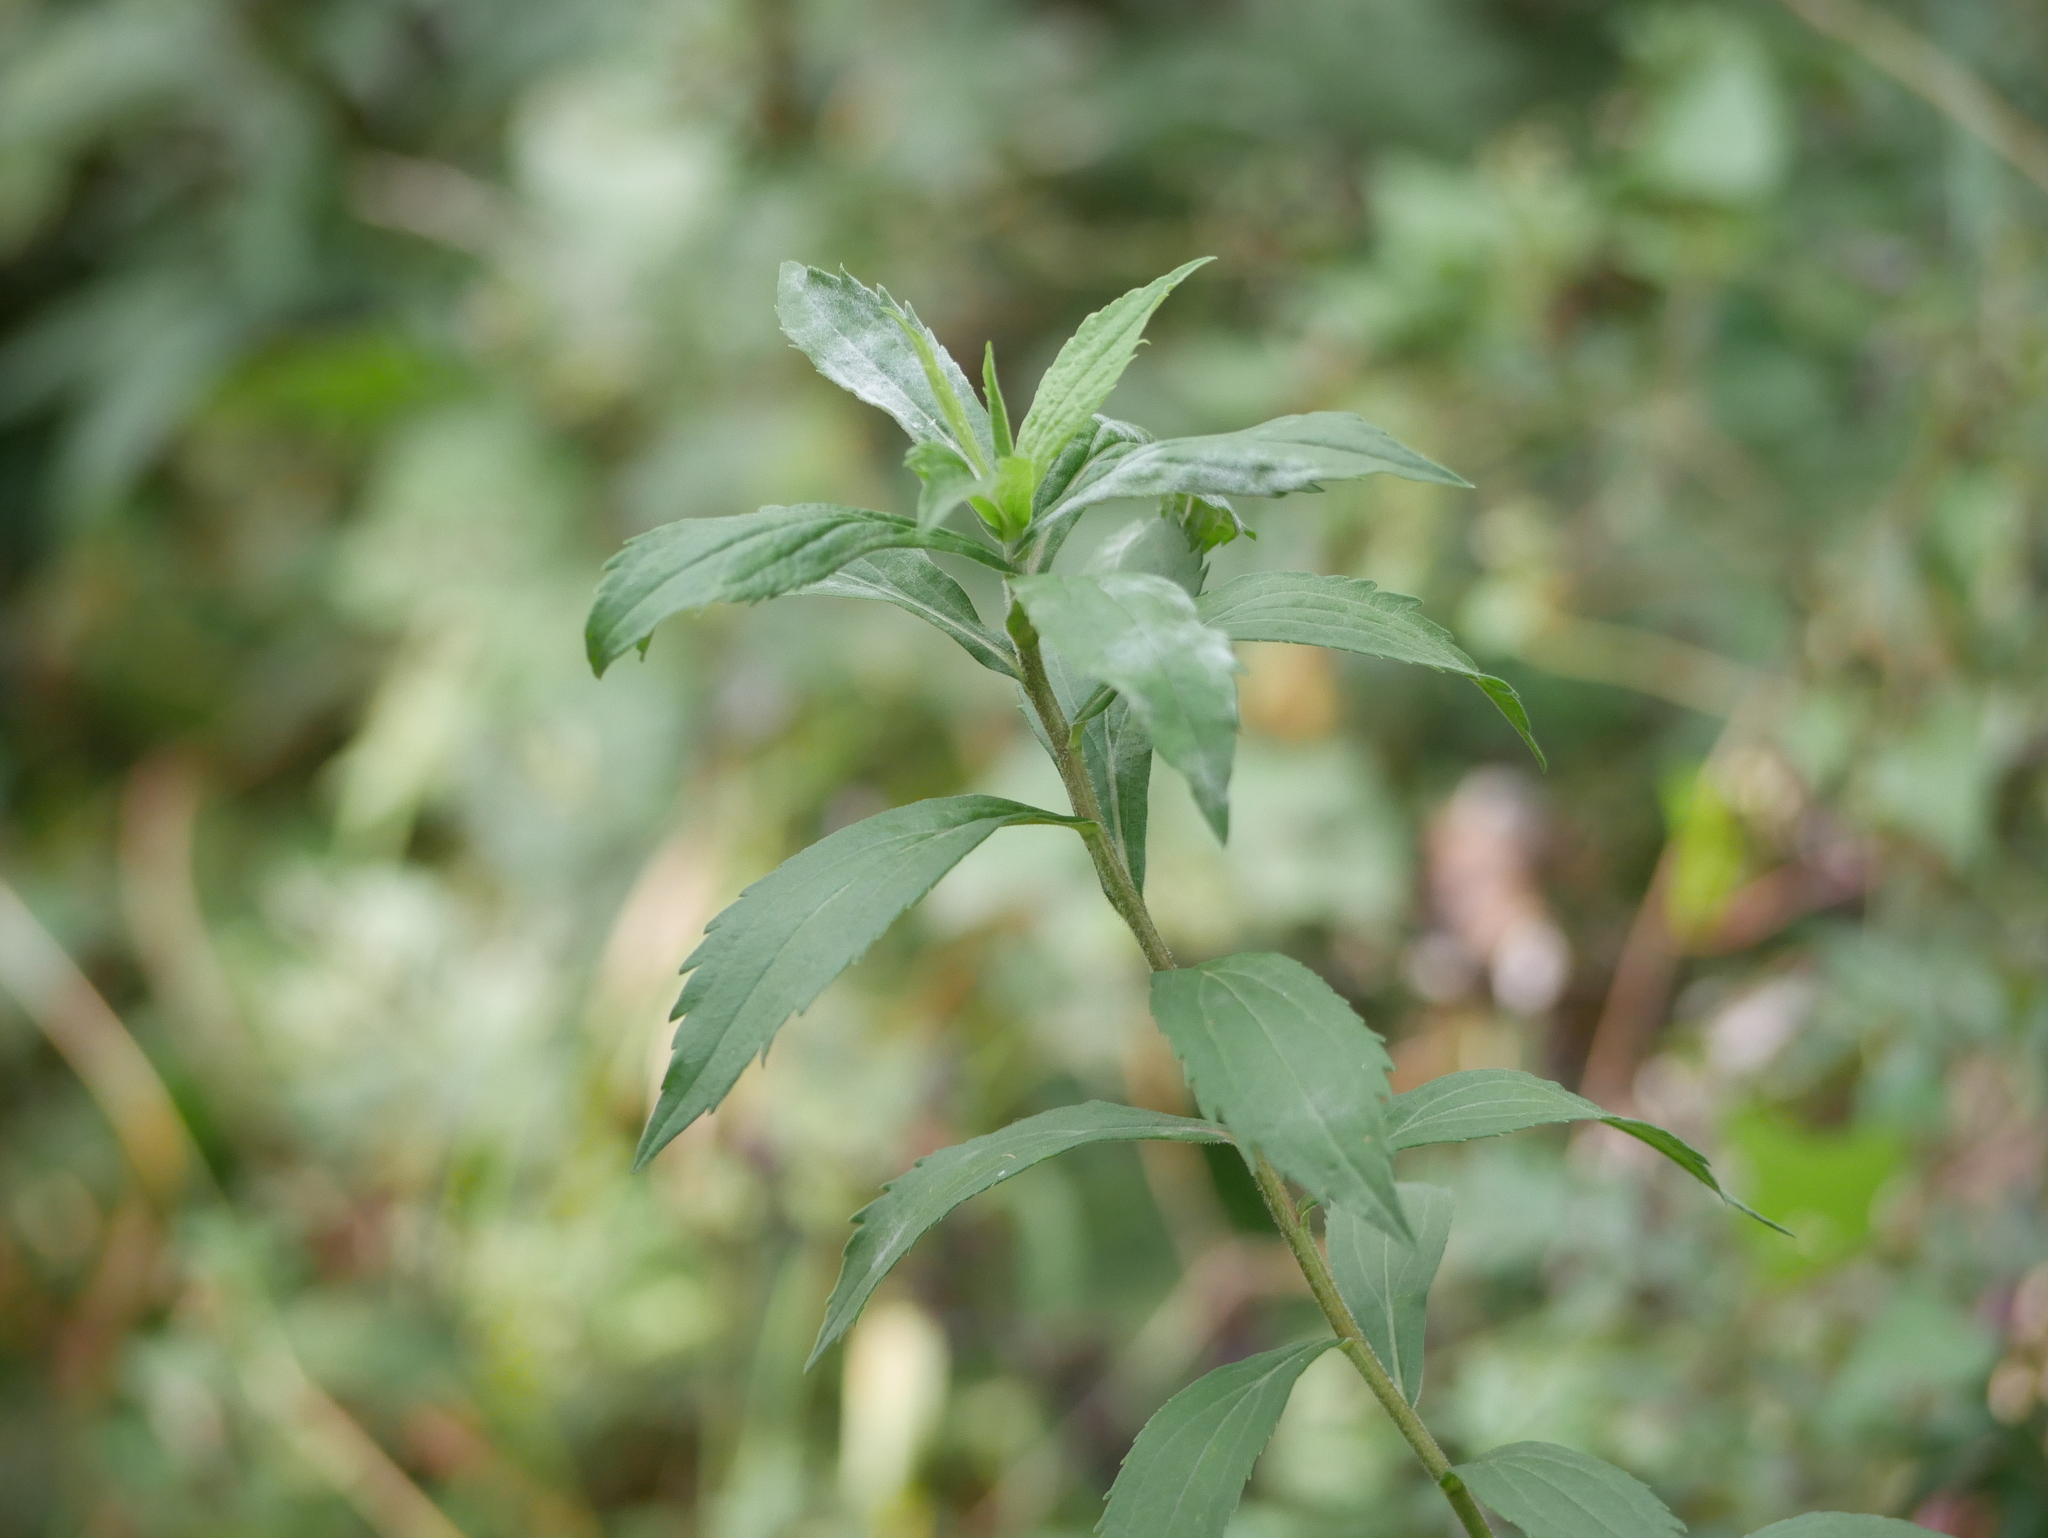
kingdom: Plantae
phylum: Tracheophyta
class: Magnoliopsida
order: Asterales
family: Asteraceae
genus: Solidago
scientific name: Solidago canadensis
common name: Canada goldenrod
